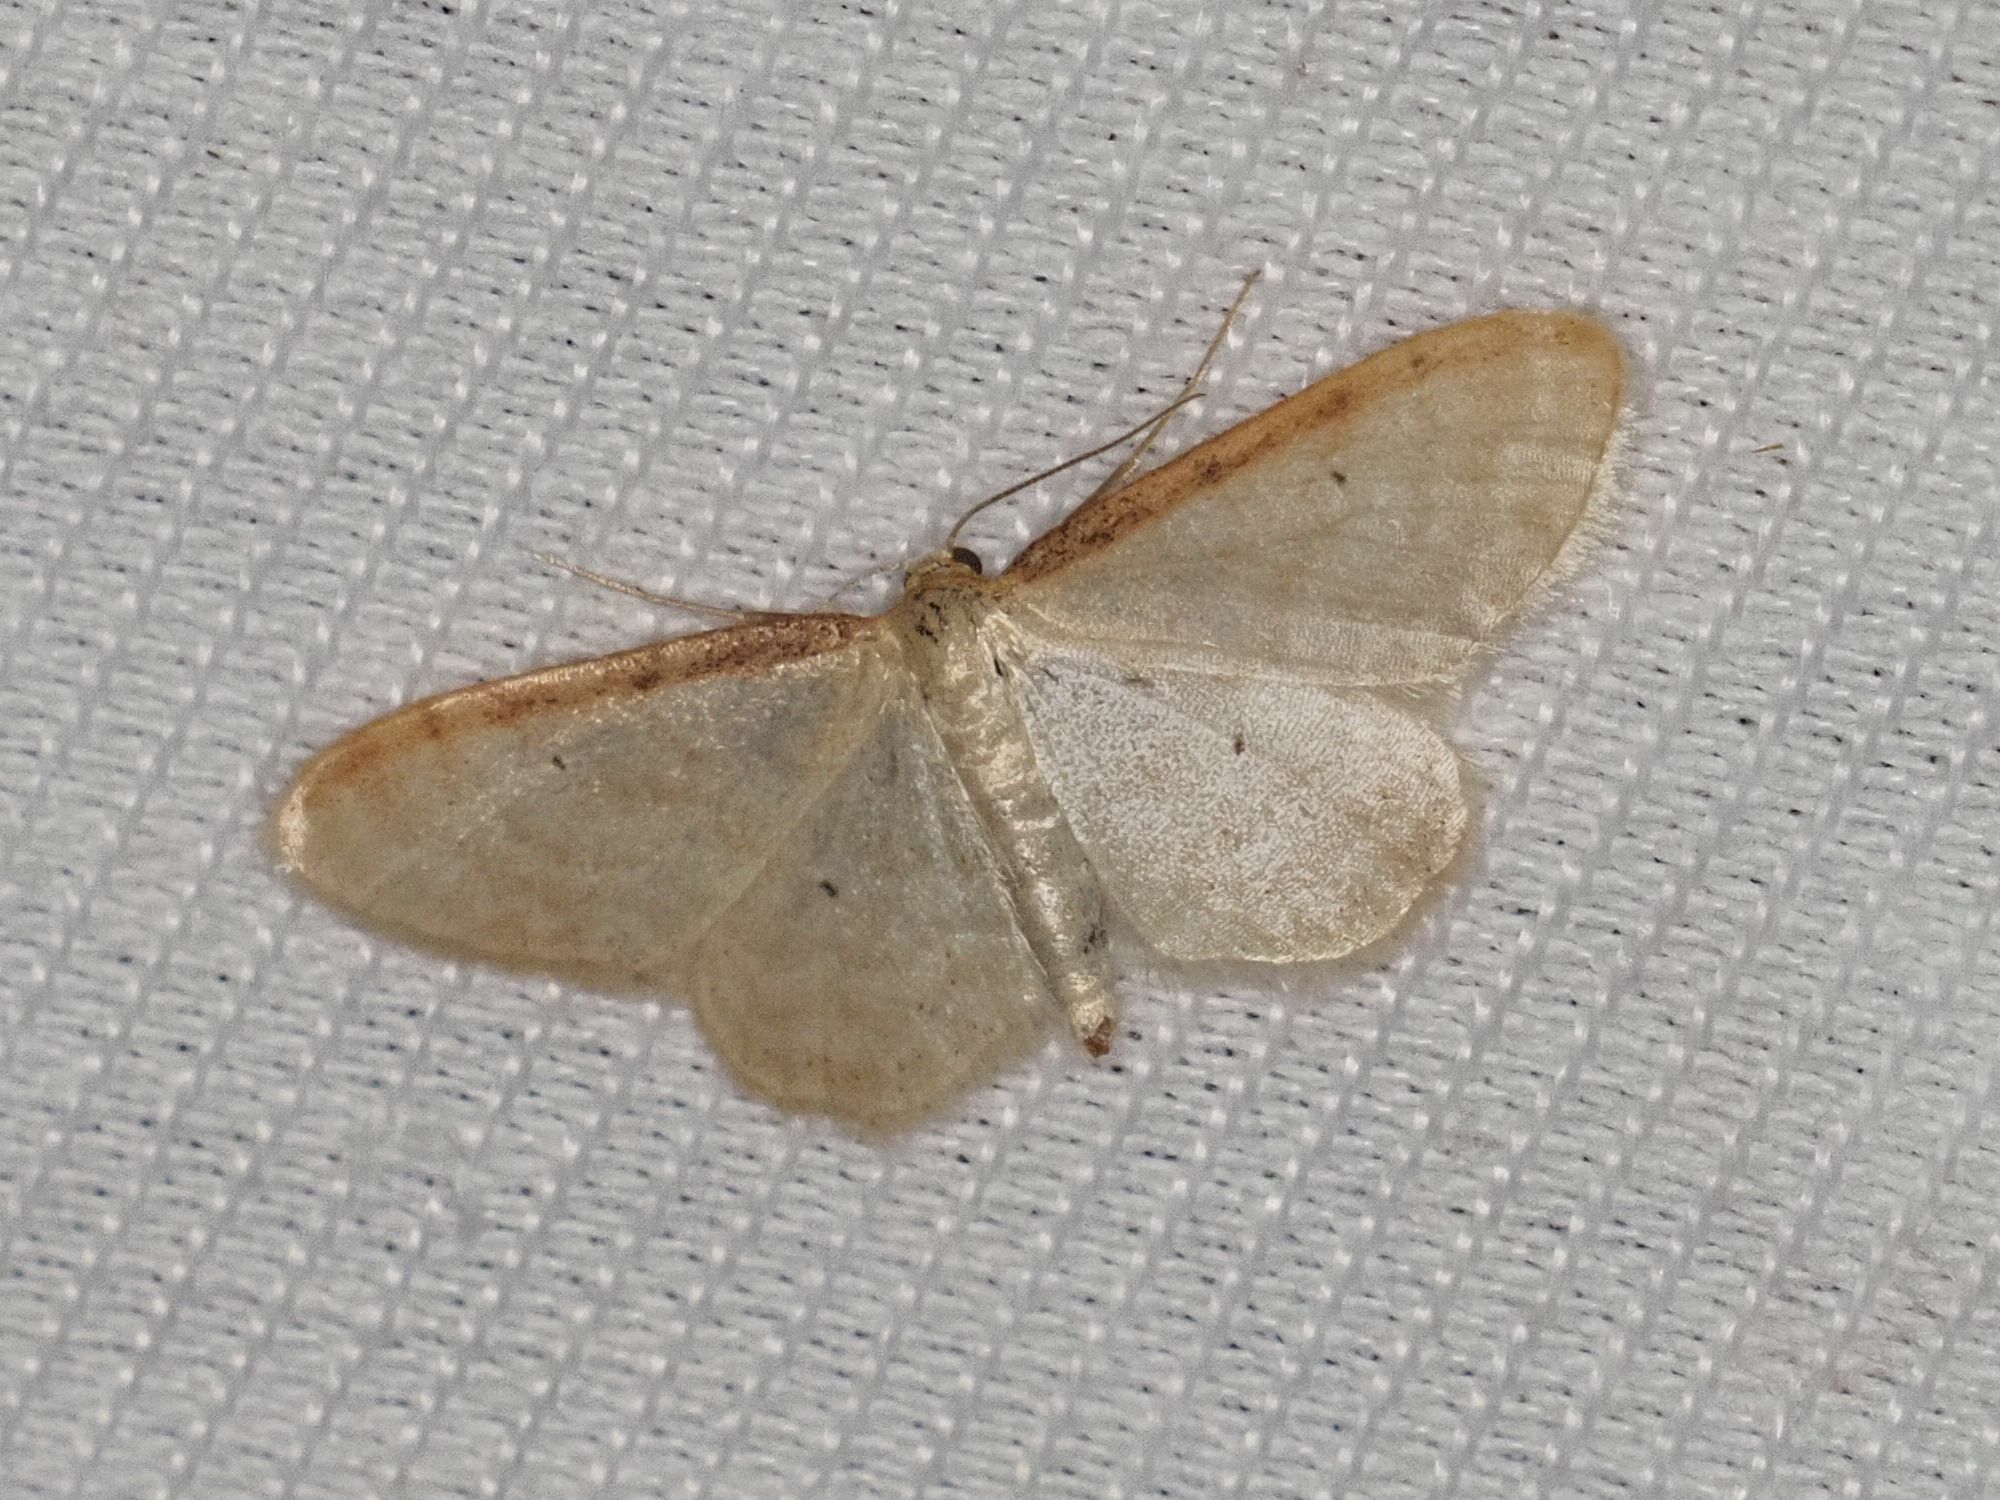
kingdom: Animalia
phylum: Arthropoda
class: Insecta
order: Lepidoptera
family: Geometridae
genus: Idaea
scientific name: Idaea humiliata
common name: Isle of wight wave
